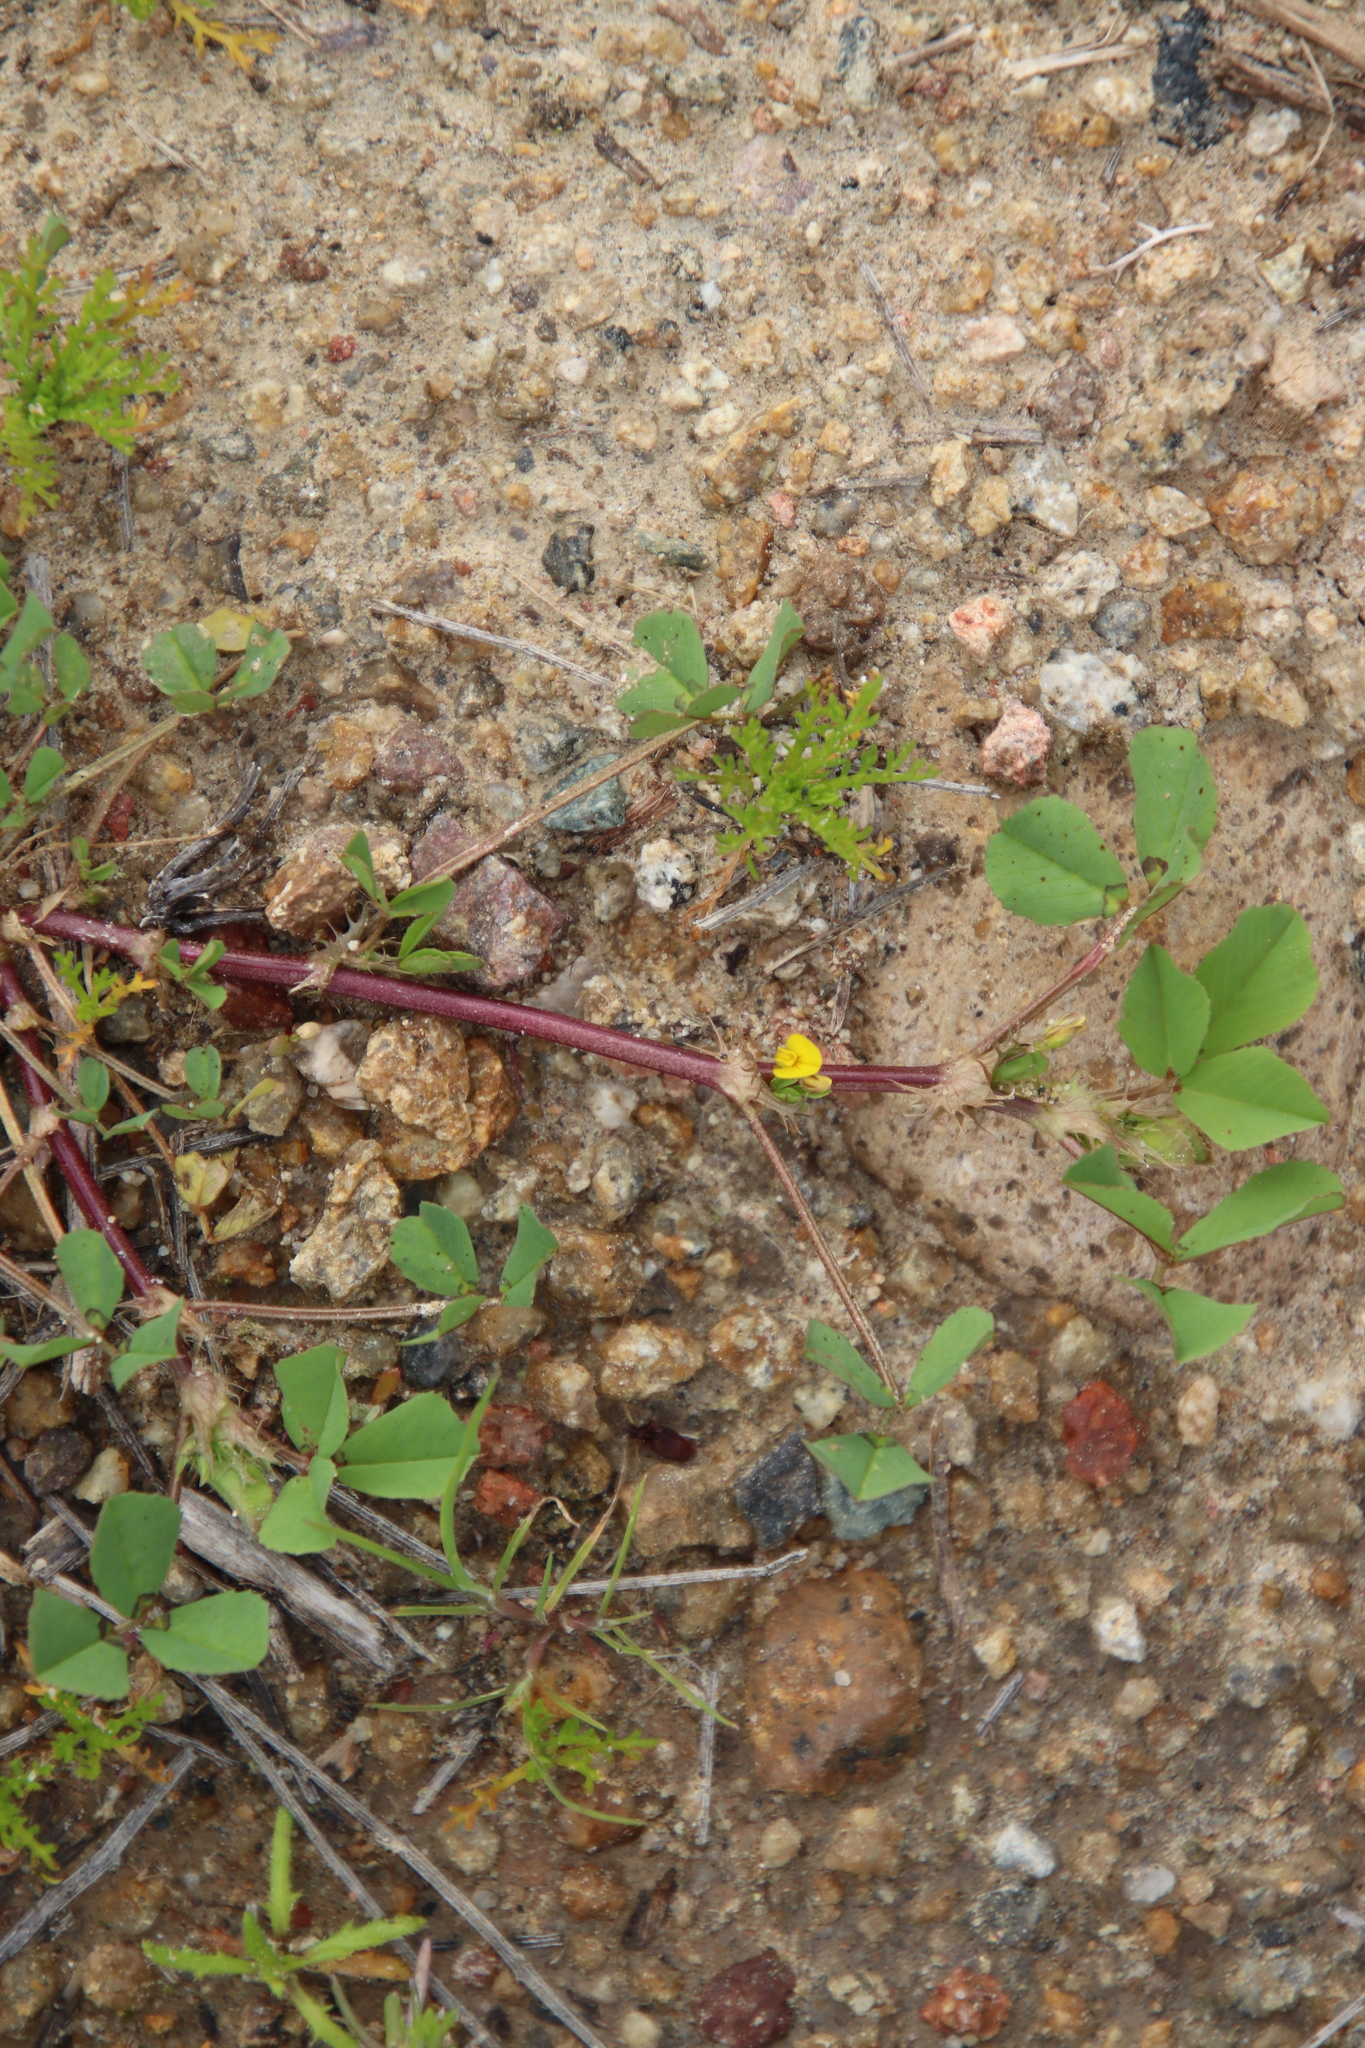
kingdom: Plantae
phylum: Tracheophyta
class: Magnoliopsida
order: Fabales
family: Fabaceae
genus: Medicago
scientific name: Medicago polymorpha
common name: Burclover
